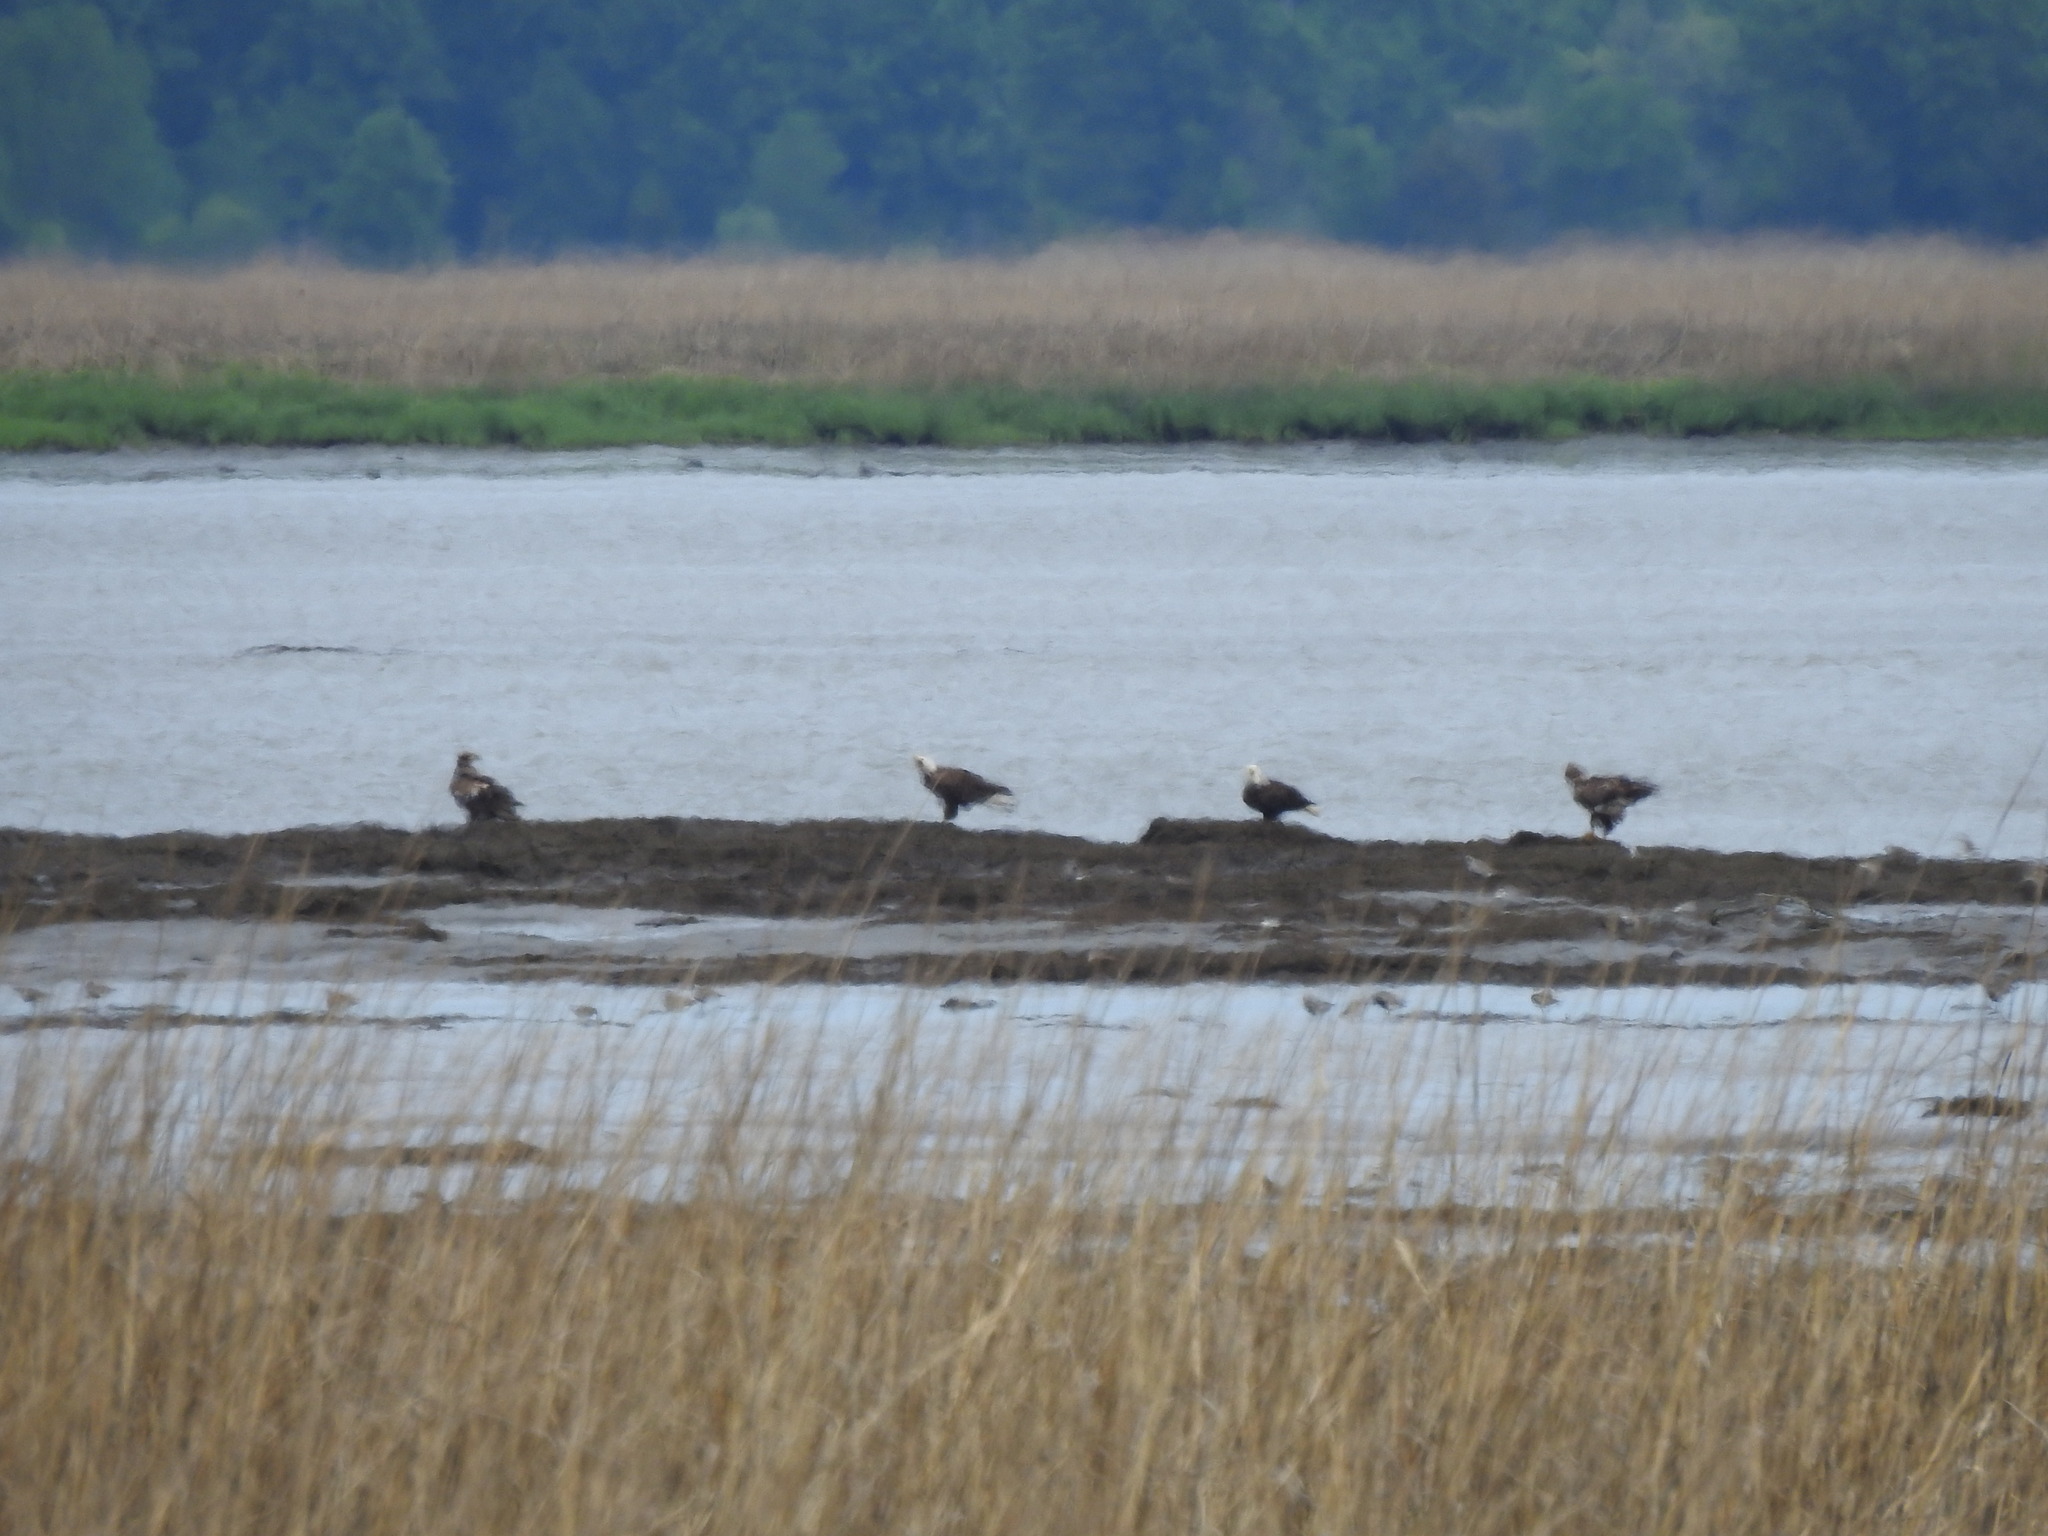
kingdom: Animalia
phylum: Chordata
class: Aves
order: Accipitriformes
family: Accipitridae
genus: Haliaeetus
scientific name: Haliaeetus leucocephalus
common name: Bald eagle
